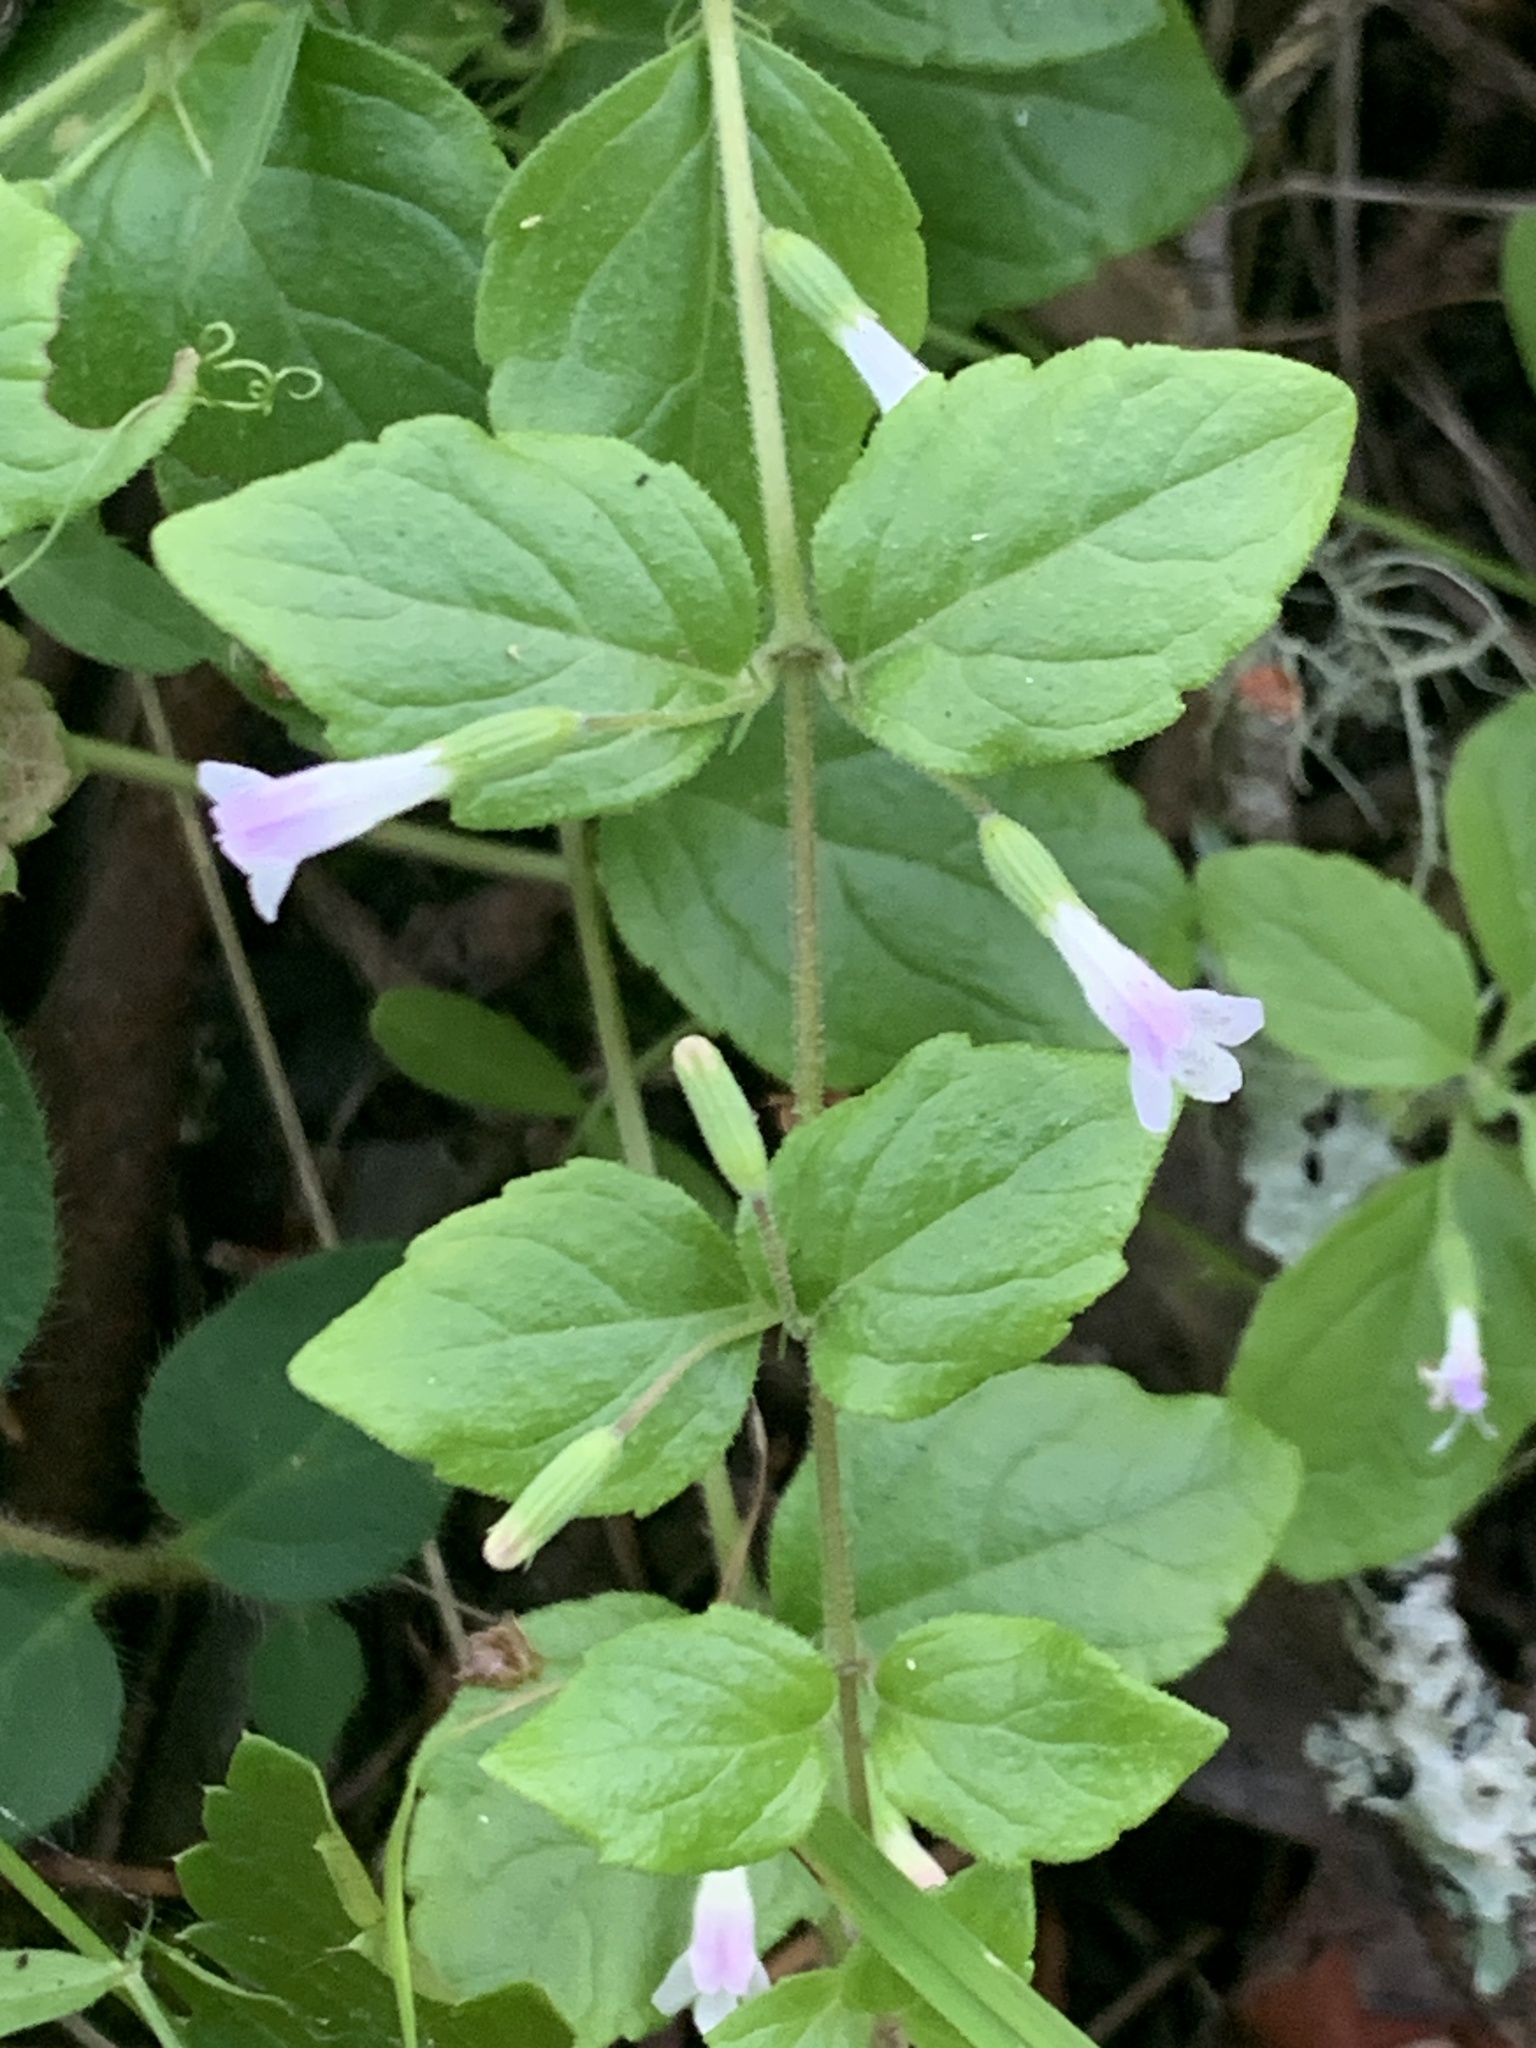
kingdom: Plantae
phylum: Tracheophyta
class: Magnoliopsida
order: Lamiales
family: Lamiaceae
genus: Micromeria
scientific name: Micromeria douglasii
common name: Yerba buena
